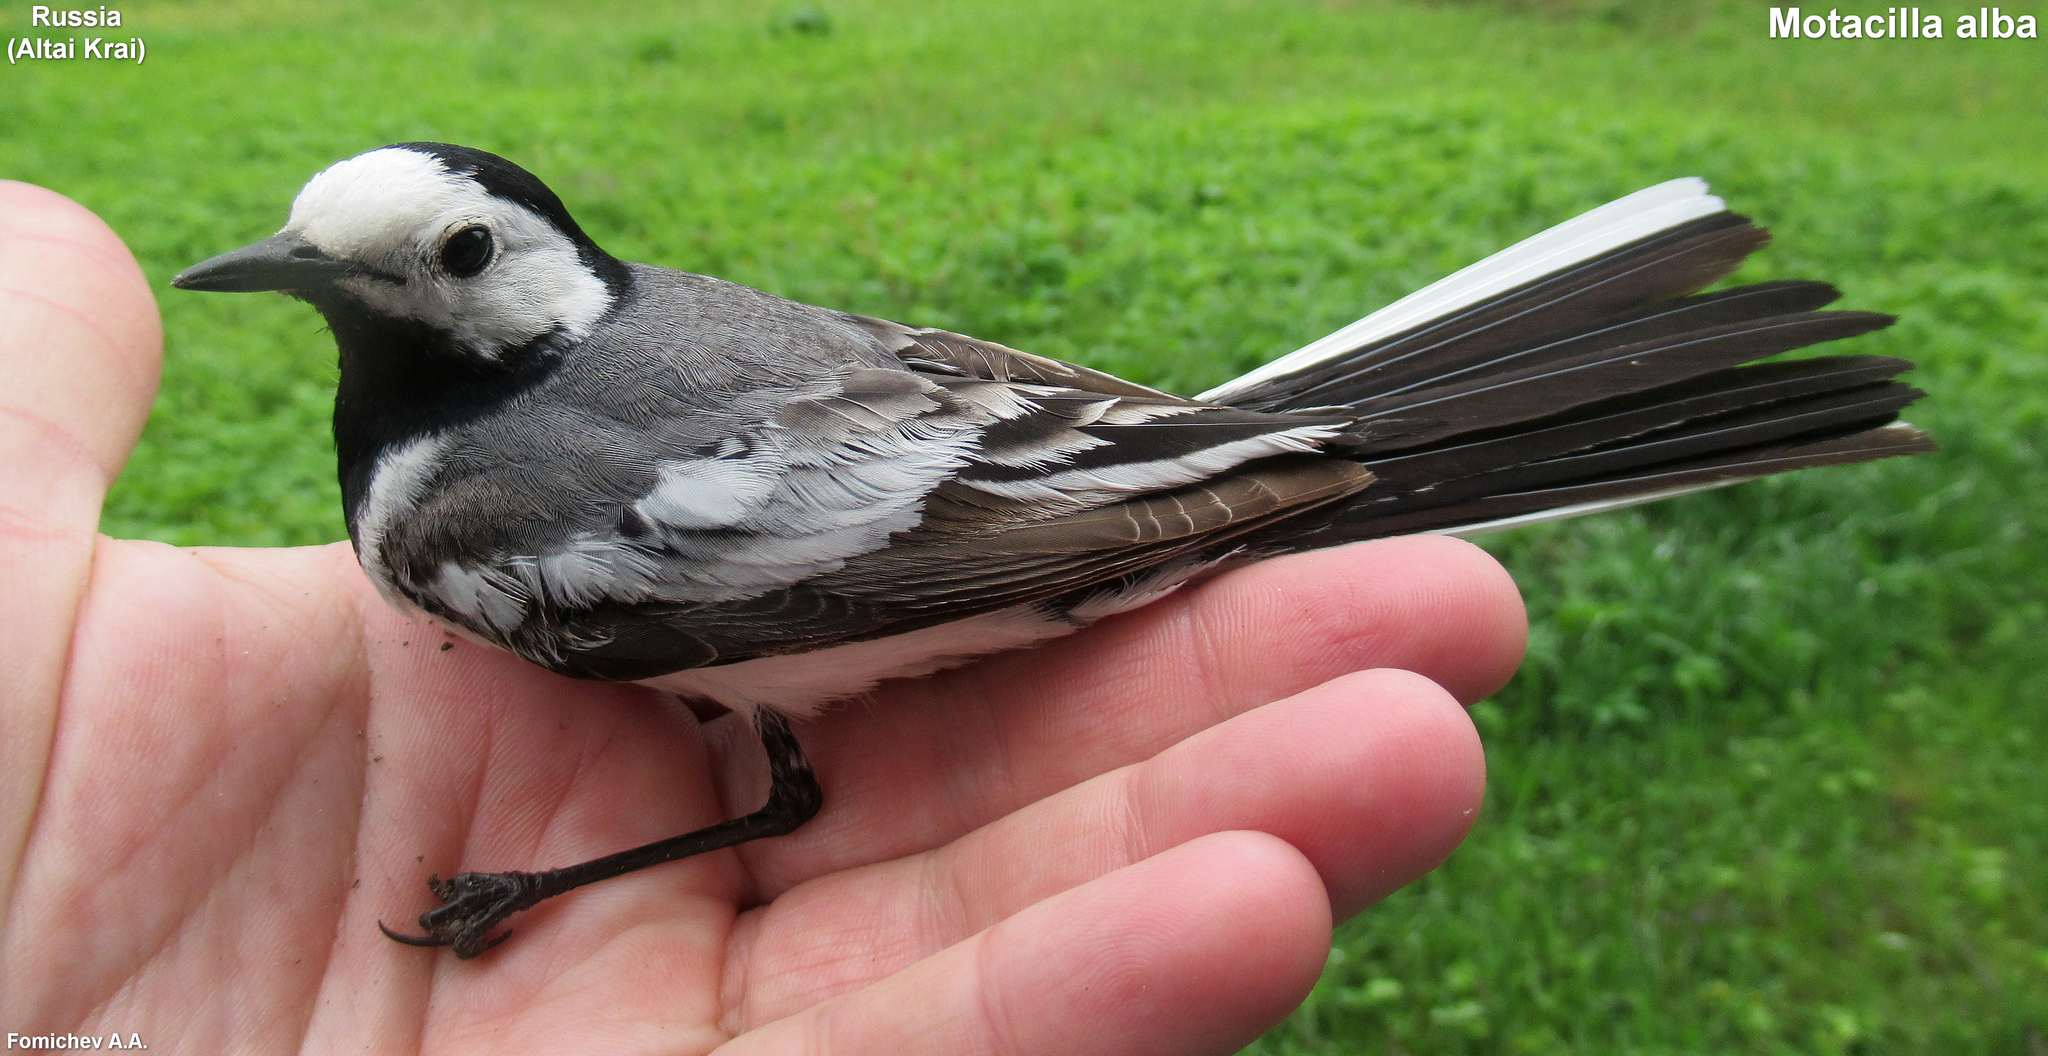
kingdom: Animalia
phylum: Chordata
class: Aves
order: Passeriformes
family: Motacillidae
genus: Motacilla
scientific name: Motacilla alba
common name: White wagtail
